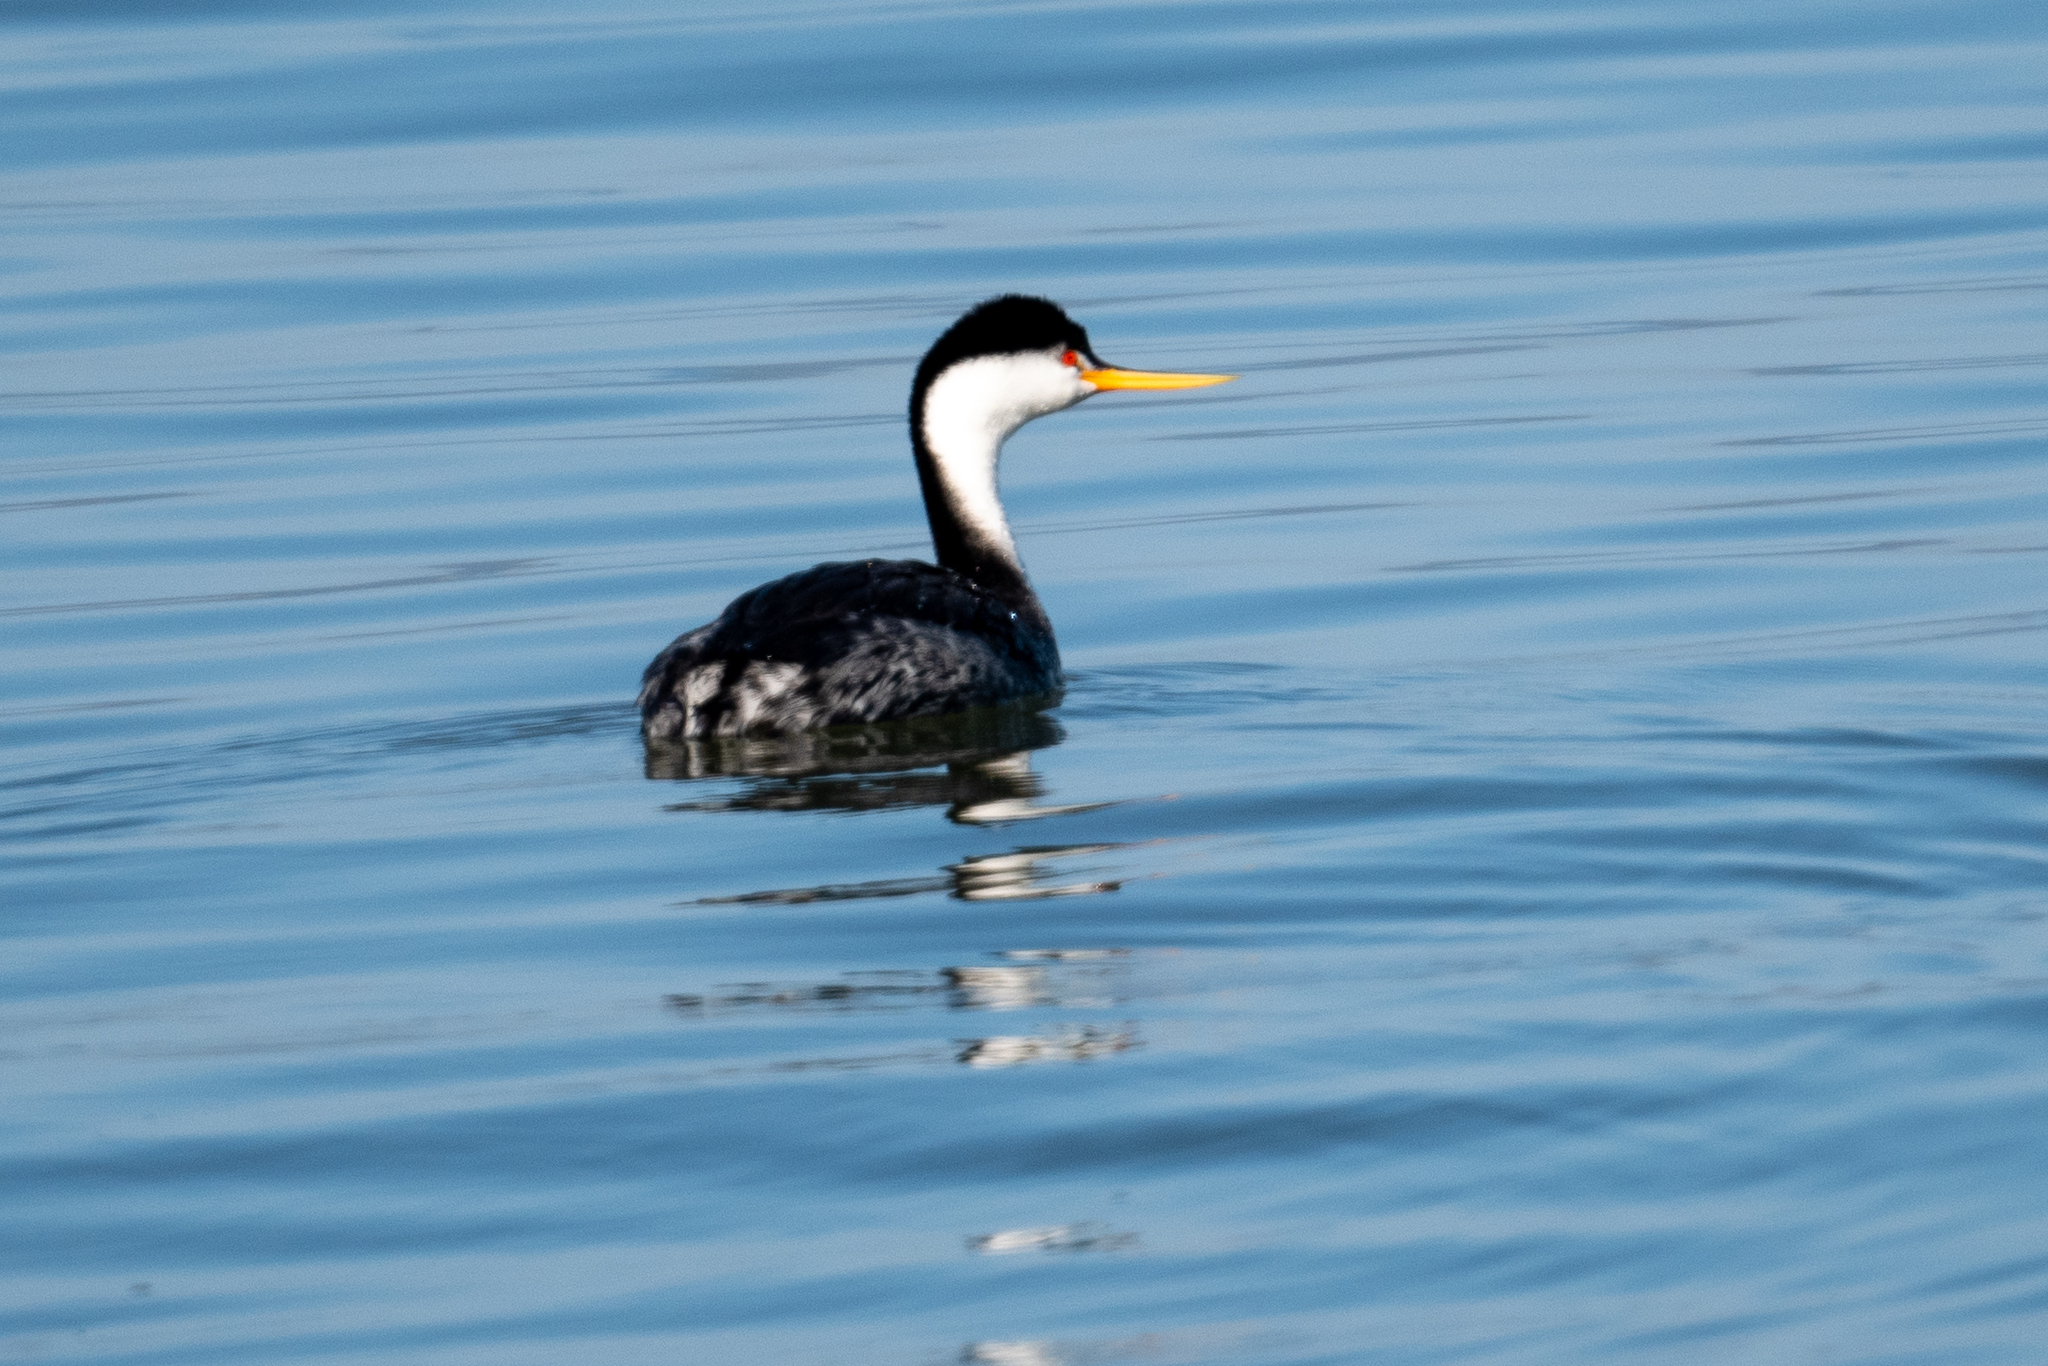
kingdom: Animalia
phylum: Chordata
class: Aves
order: Podicipediformes
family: Podicipedidae
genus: Aechmophorus
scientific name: Aechmophorus clarkii
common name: Clark's grebe
